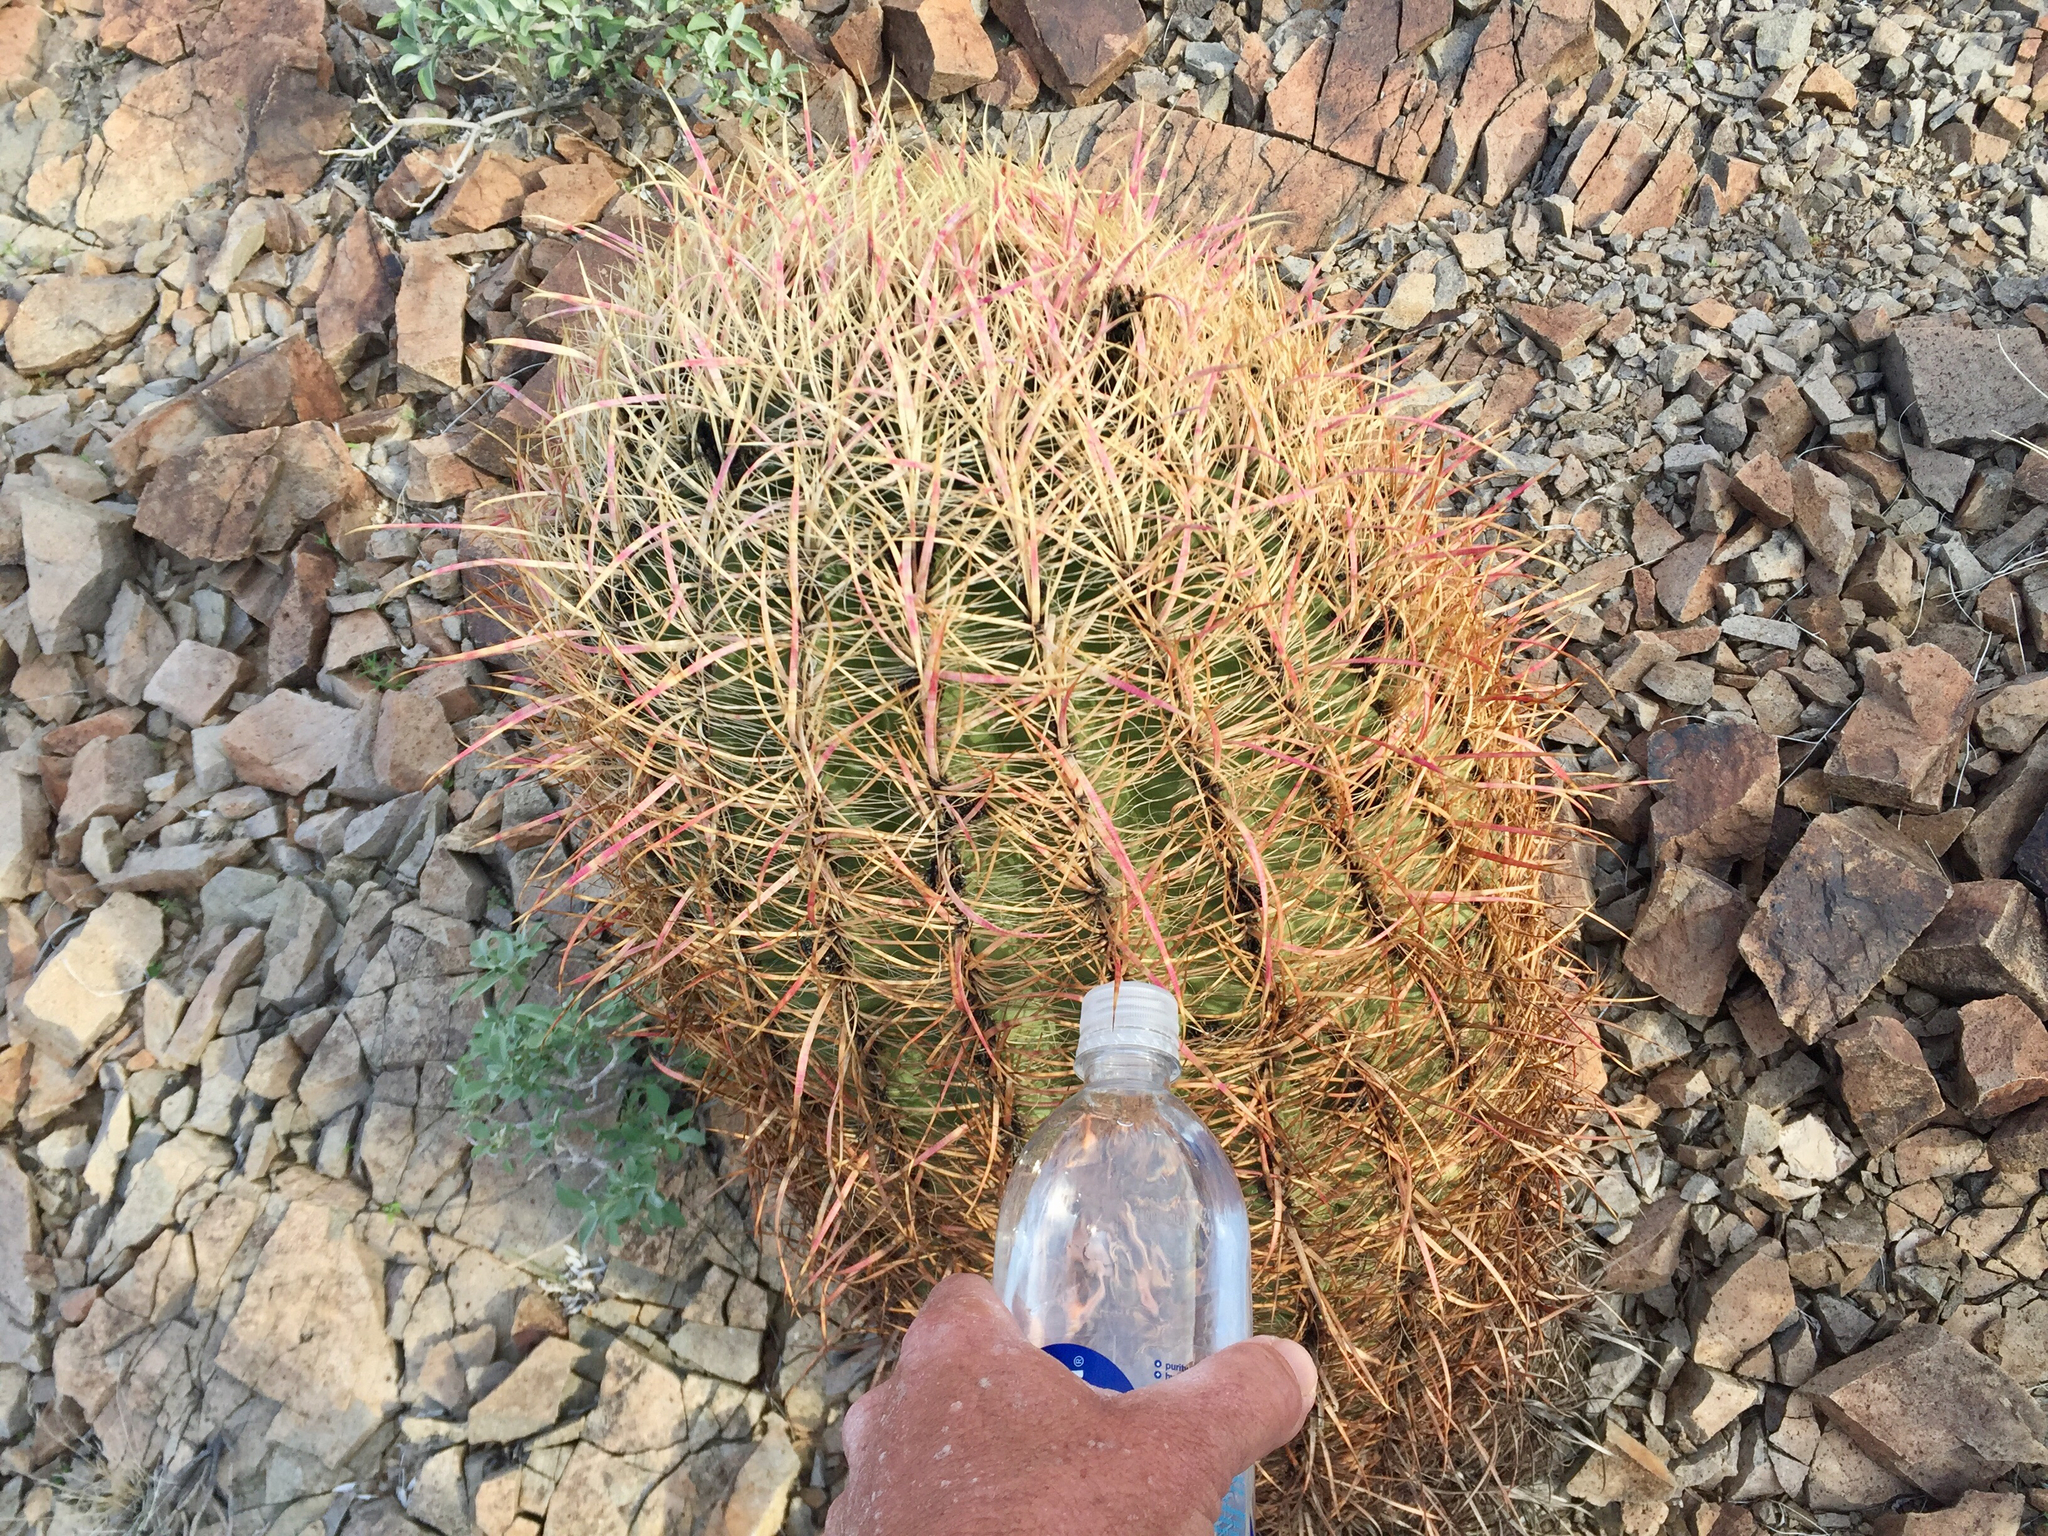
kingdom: Plantae
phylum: Tracheophyta
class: Magnoliopsida
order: Caryophyllales
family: Cactaceae
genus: Ferocactus
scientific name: Ferocactus cylindraceus
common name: California barrel cactus
